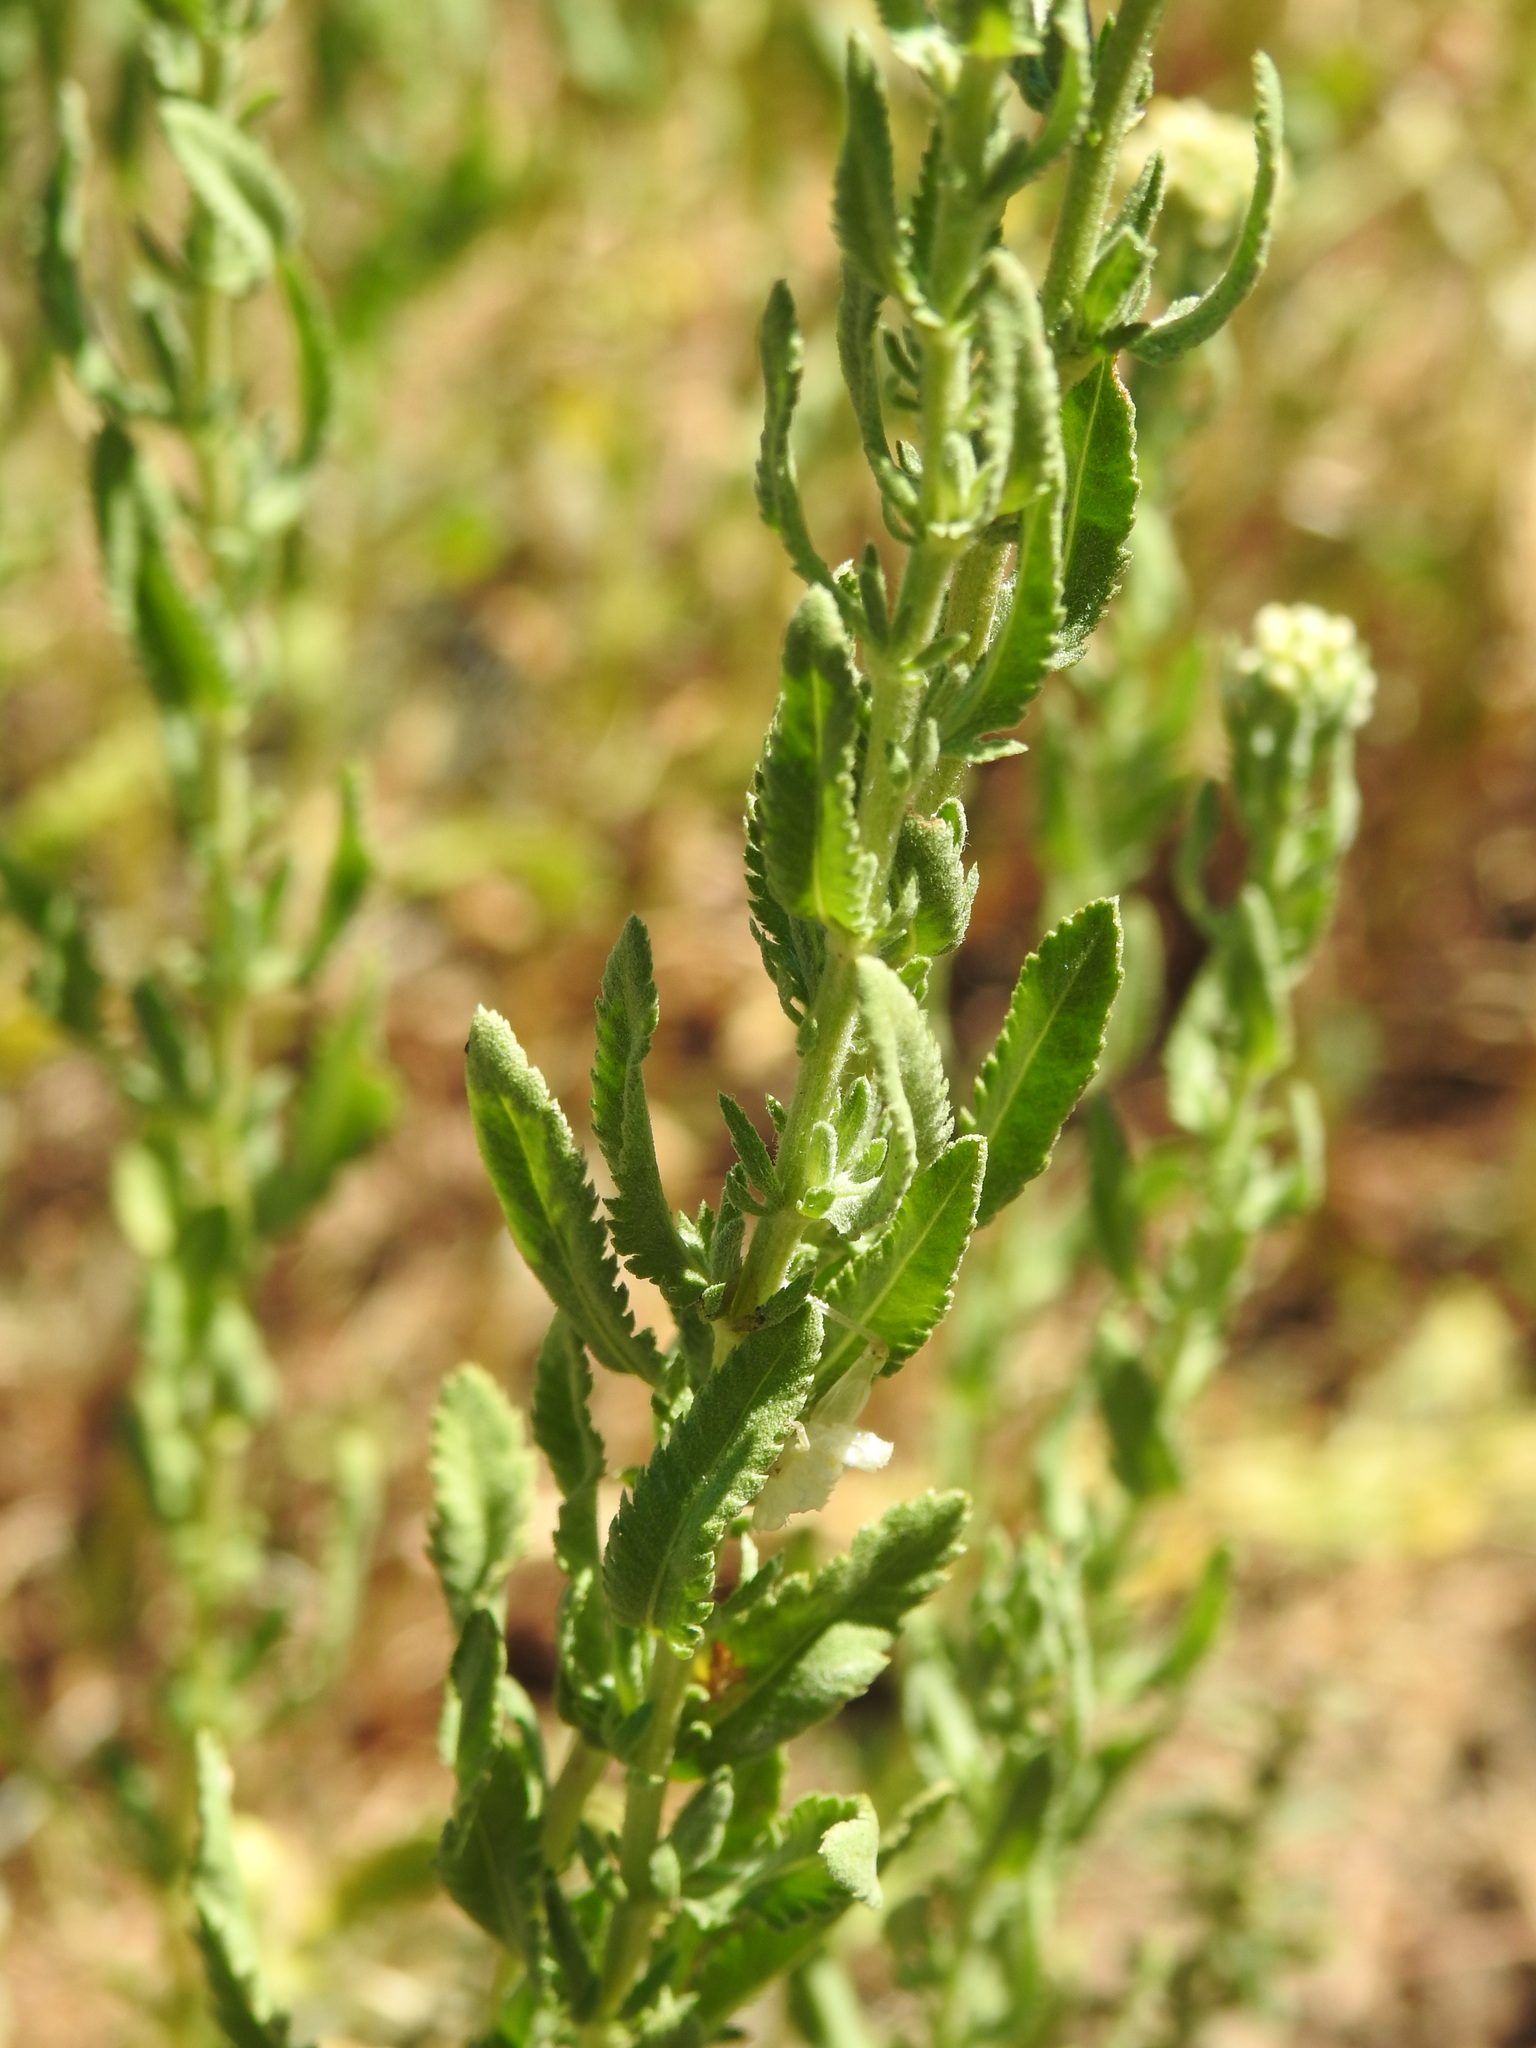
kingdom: Plantae
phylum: Tracheophyta
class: Magnoliopsida
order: Asterales
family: Asteraceae
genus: Achillea
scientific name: Achillea ageratum
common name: Sweet-nancy
